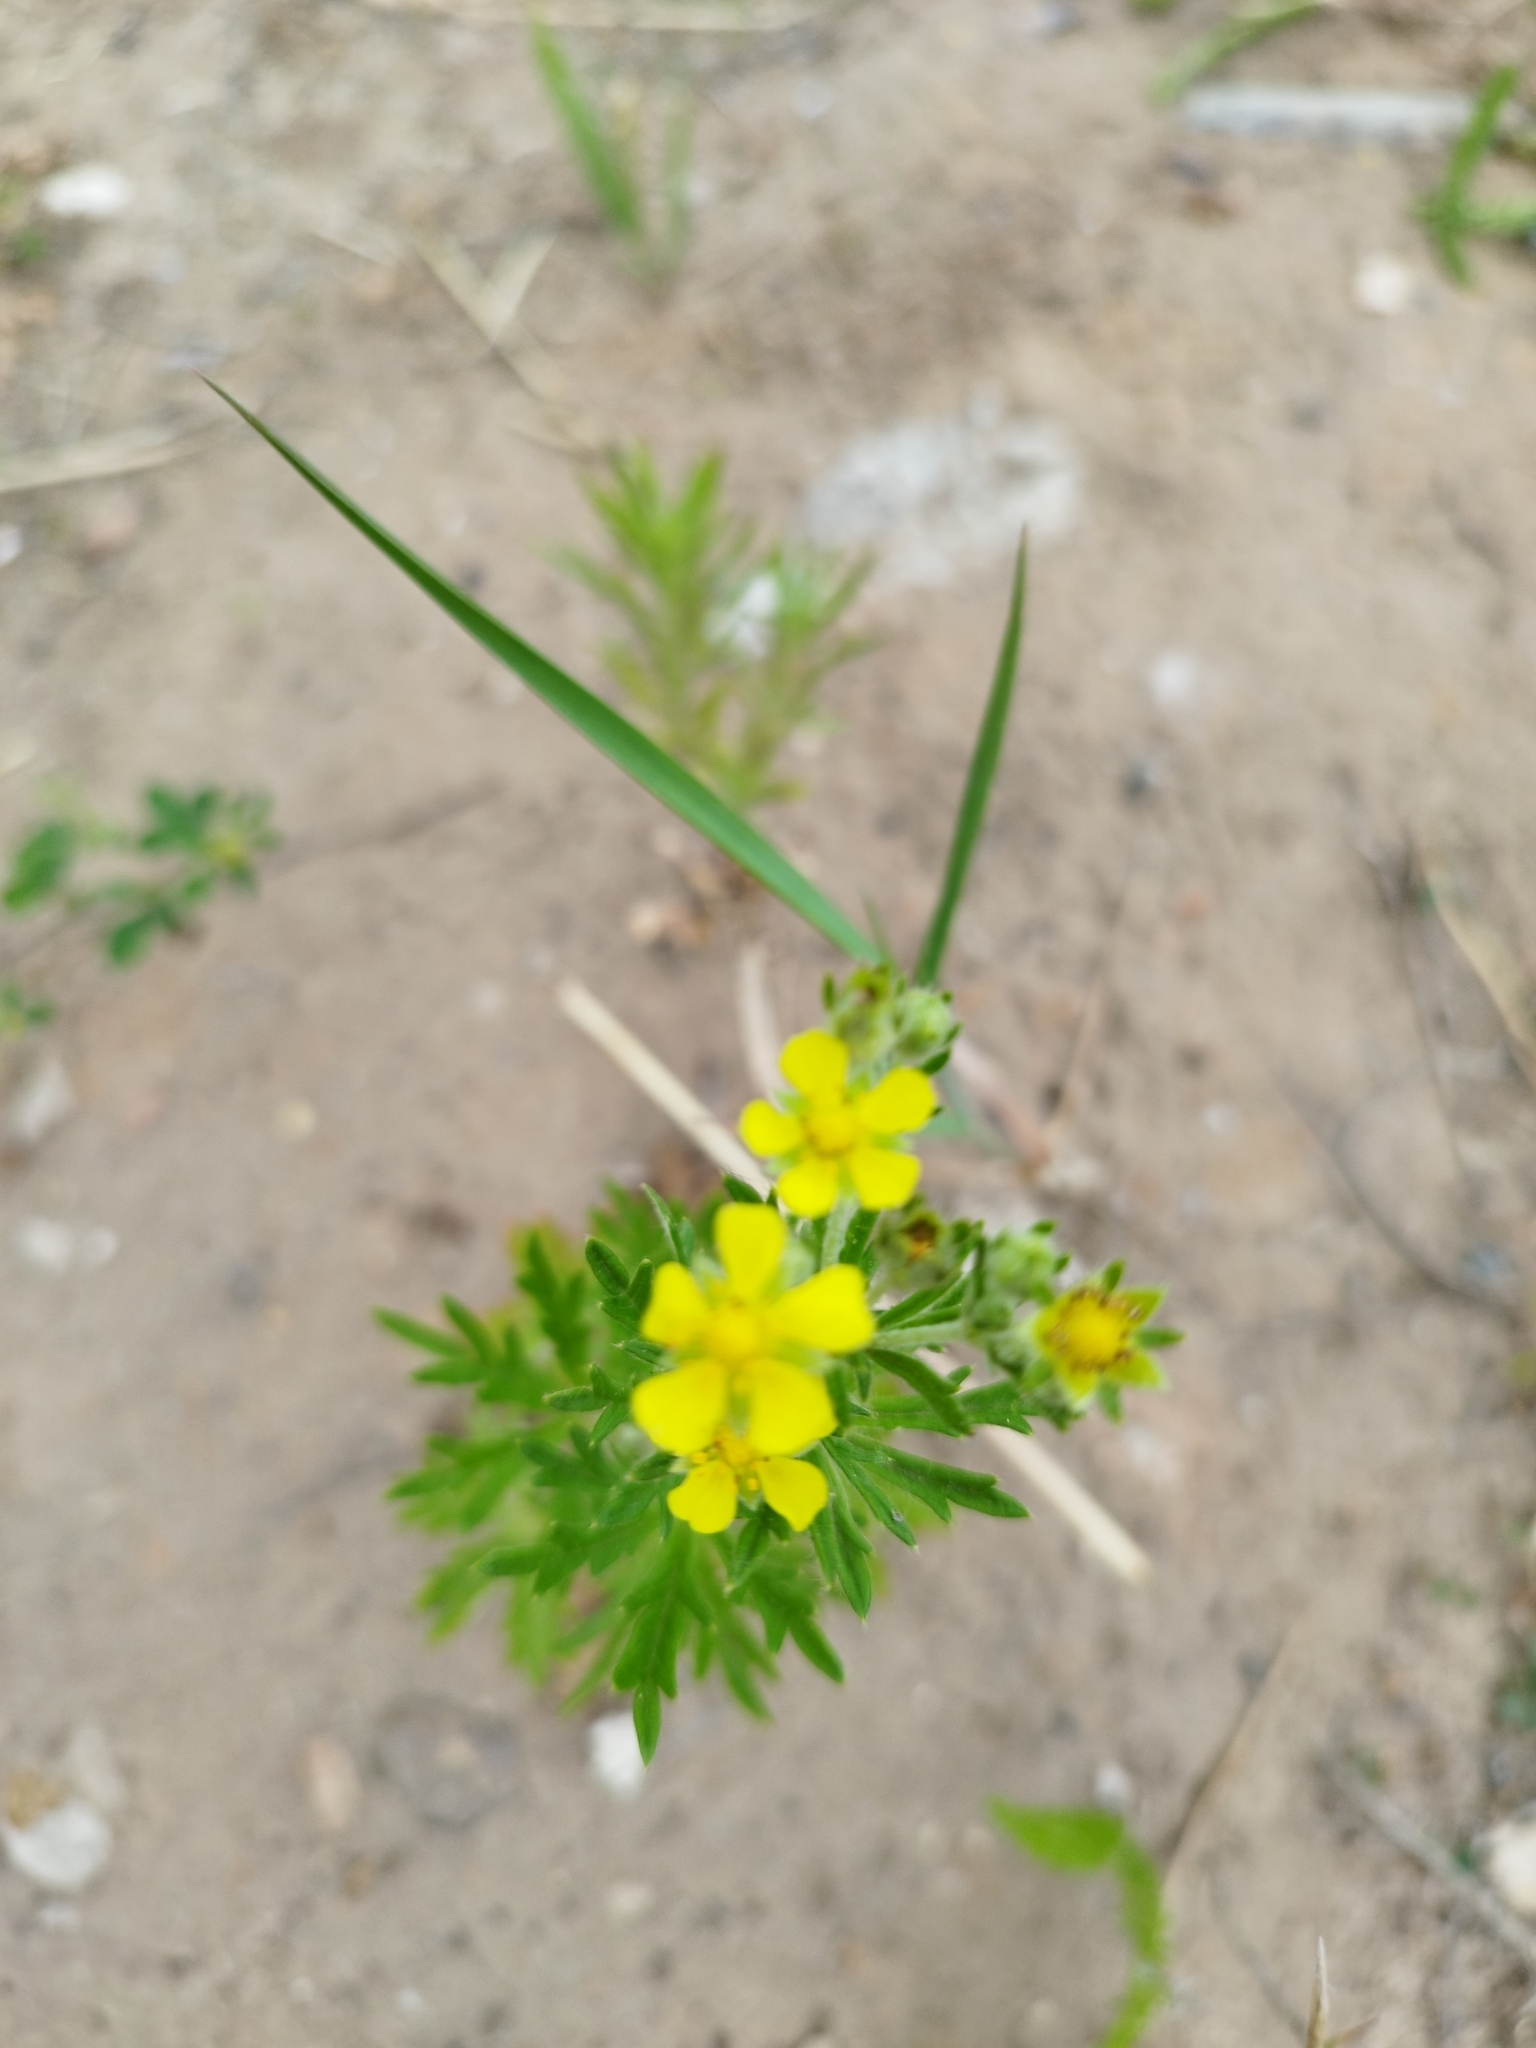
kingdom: Plantae
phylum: Tracheophyta
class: Magnoliopsida
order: Rosales
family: Rosaceae
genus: Potentilla
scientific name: Potentilla argentea
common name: Hoary cinquefoil
